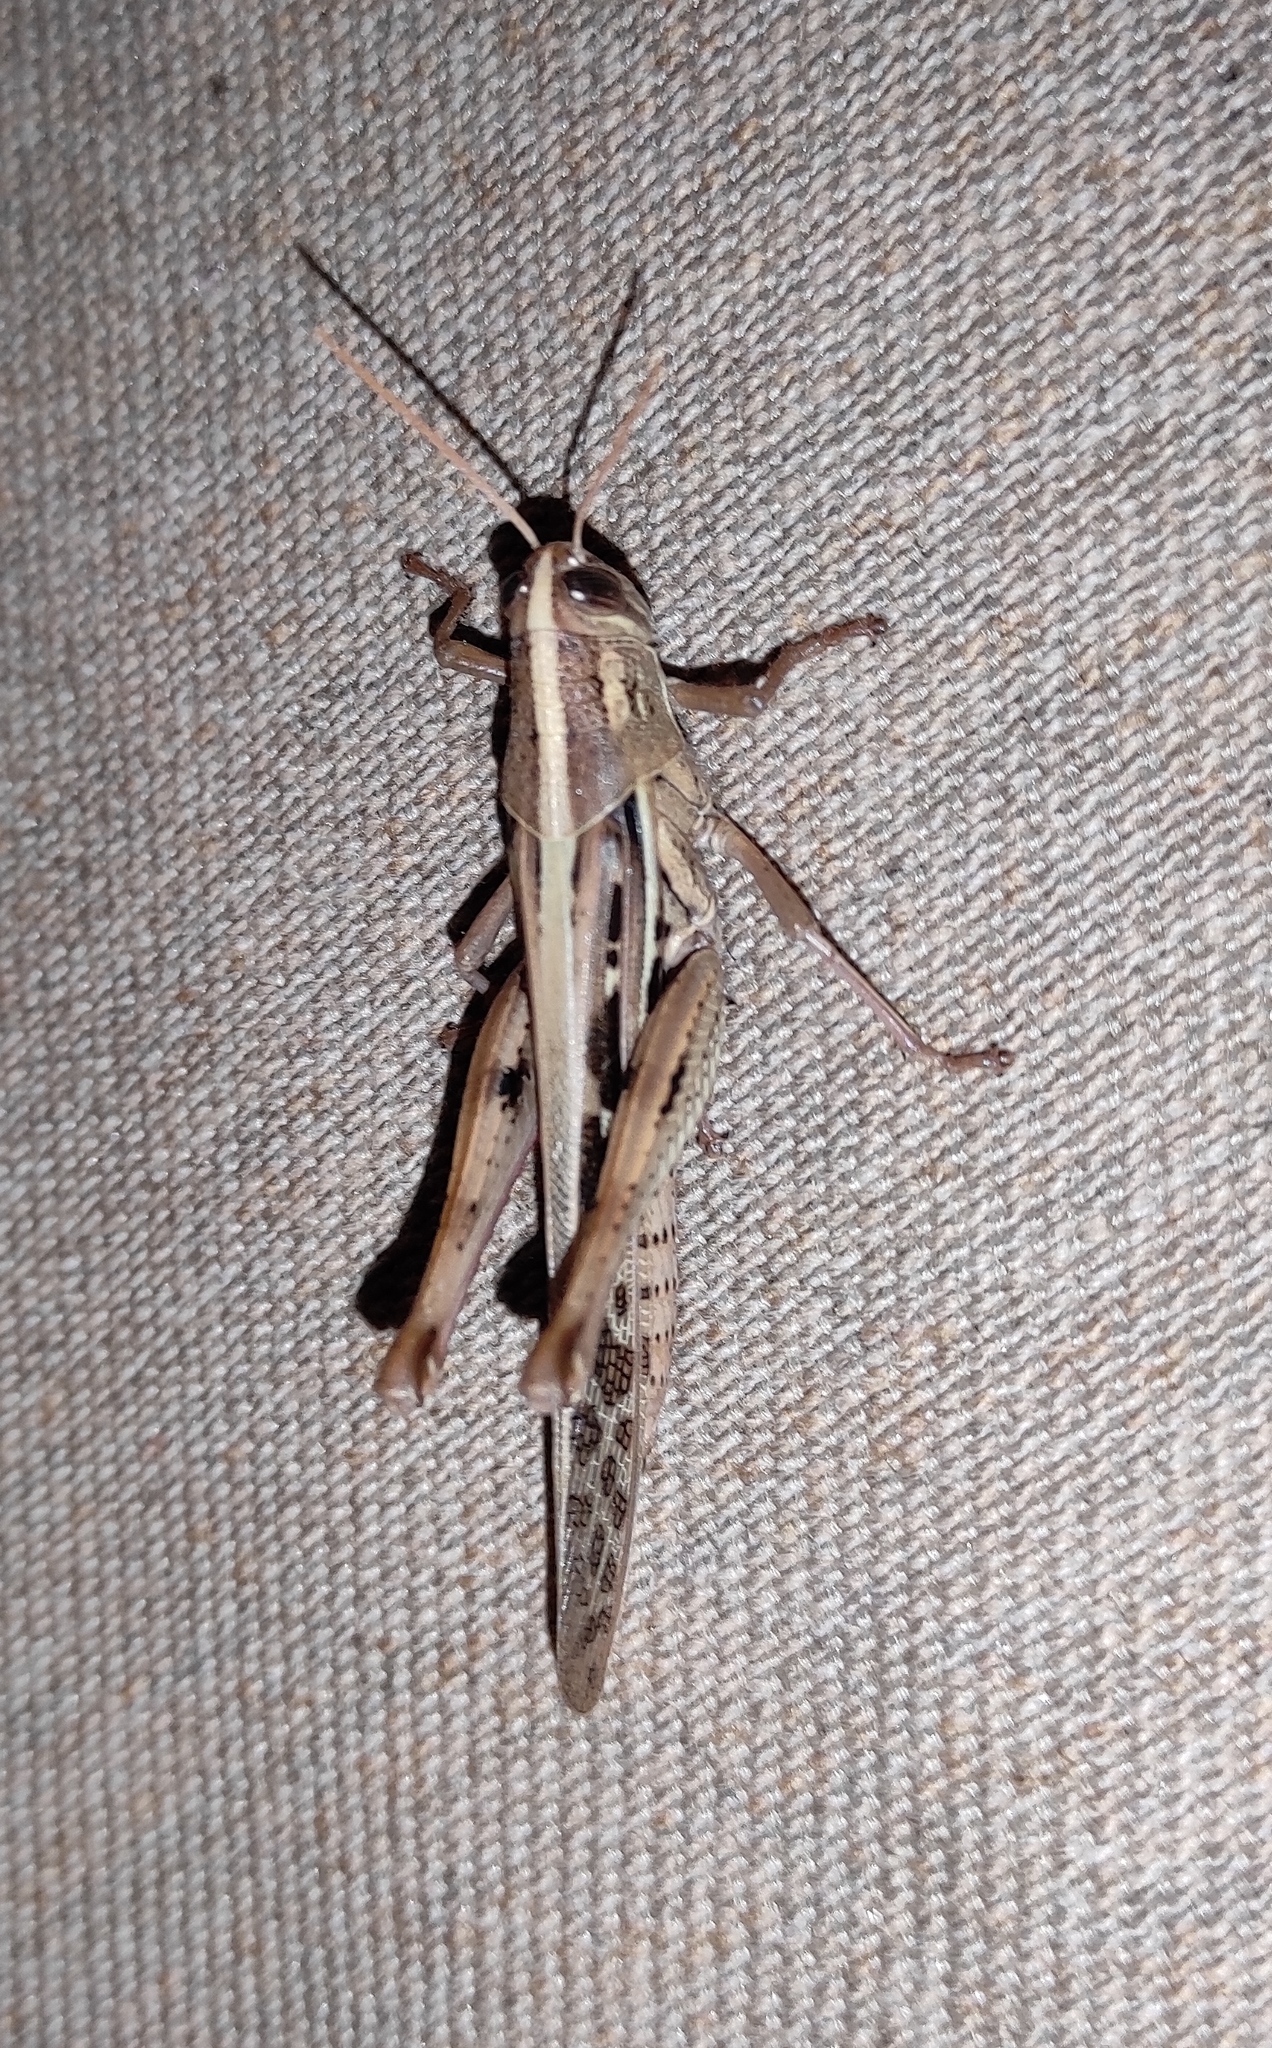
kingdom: Animalia
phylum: Arthropoda
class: Insecta
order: Orthoptera
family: Acrididae
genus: Schistocerca
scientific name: Schistocerca serialis
